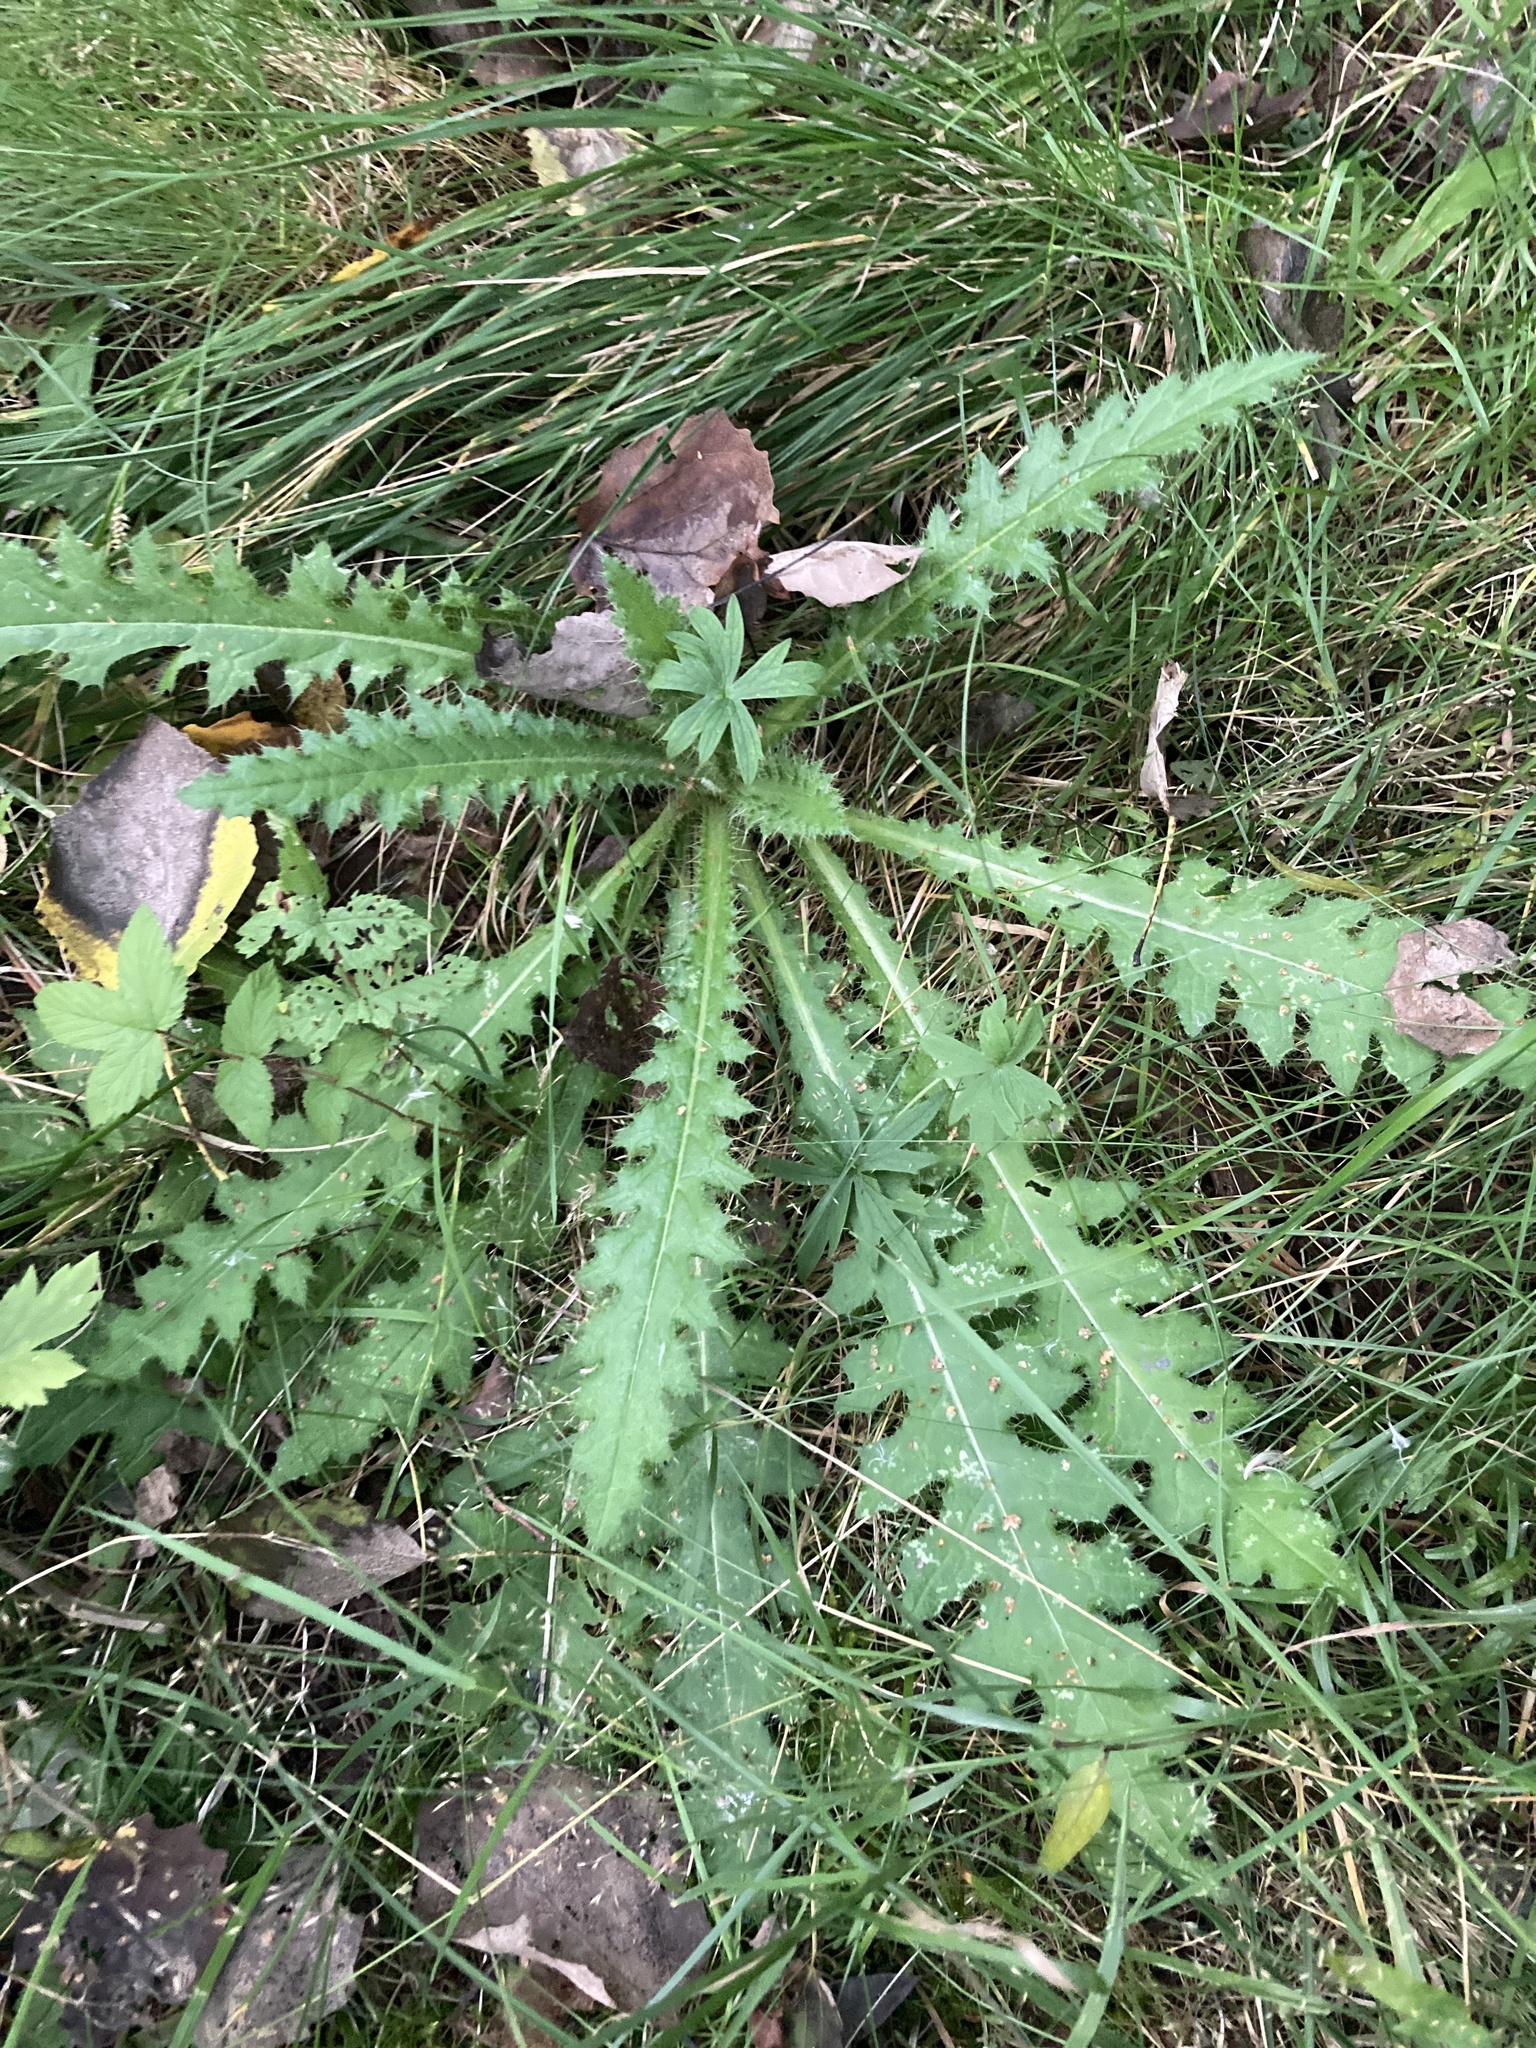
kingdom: Plantae
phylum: Tracheophyta
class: Magnoliopsida
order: Asterales
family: Asteraceae
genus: Cirsium
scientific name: Cirsium palustre
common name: Marsh thistle
